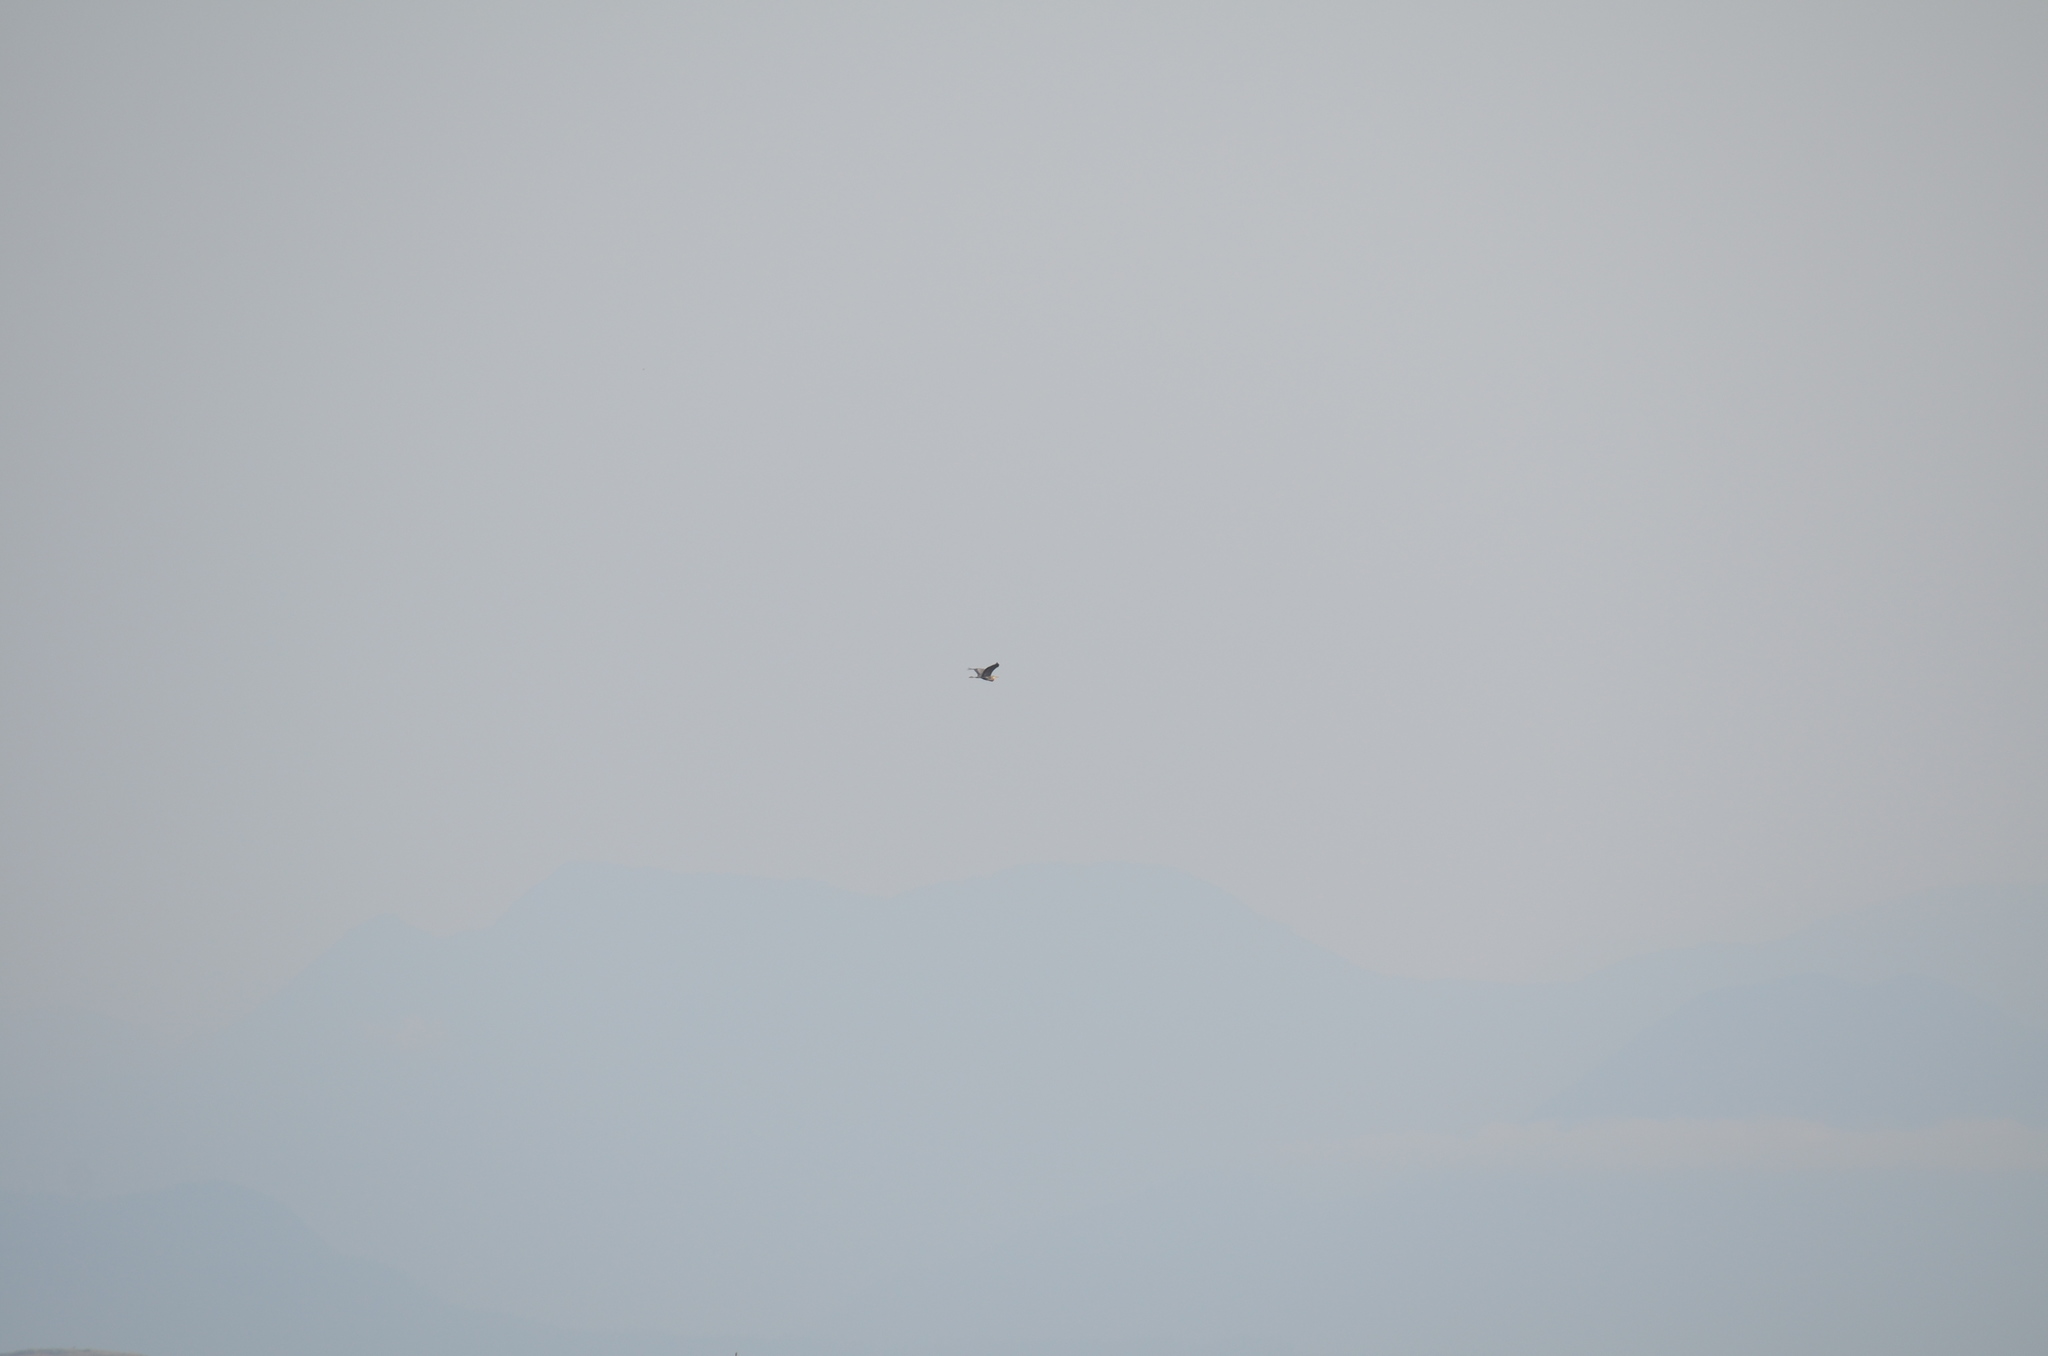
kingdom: Animalia
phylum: Chordata
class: Aves
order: Pelecaniformes
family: Ardeidae
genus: Ardea
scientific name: Ardea herodias
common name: Great blue heron
